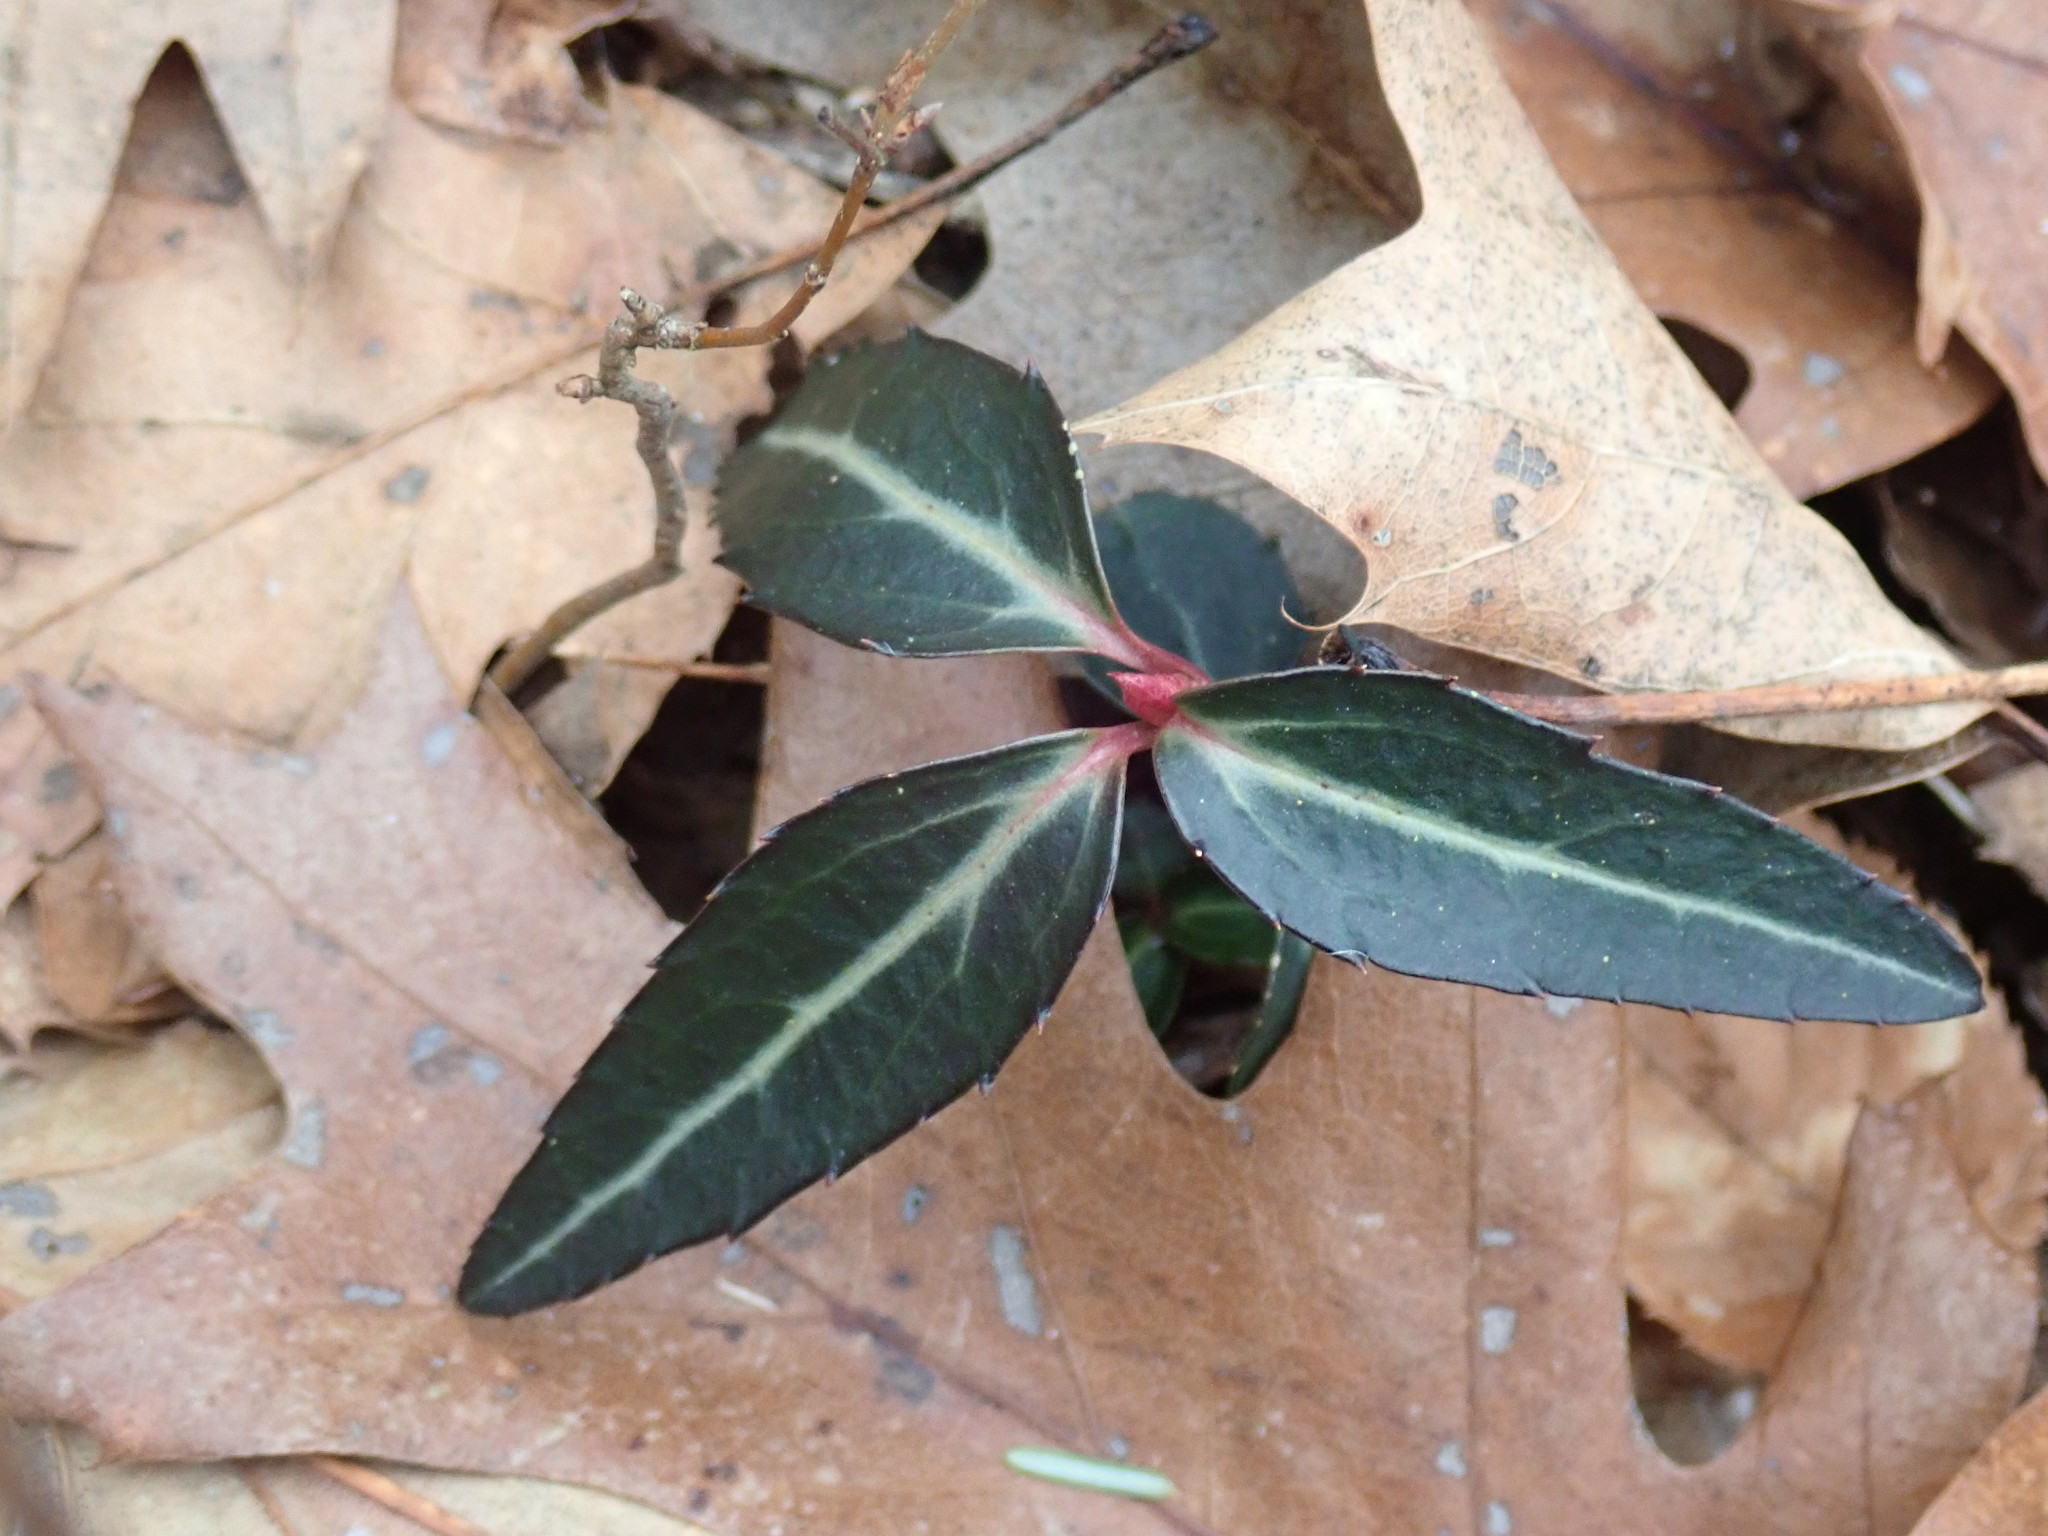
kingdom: Plantae
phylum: Tracheophyta
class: Magnoliopsida
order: Ericales
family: Ericaceae
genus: Chimaphila
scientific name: Chimaphila maculata
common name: Spotted pipsissewa
